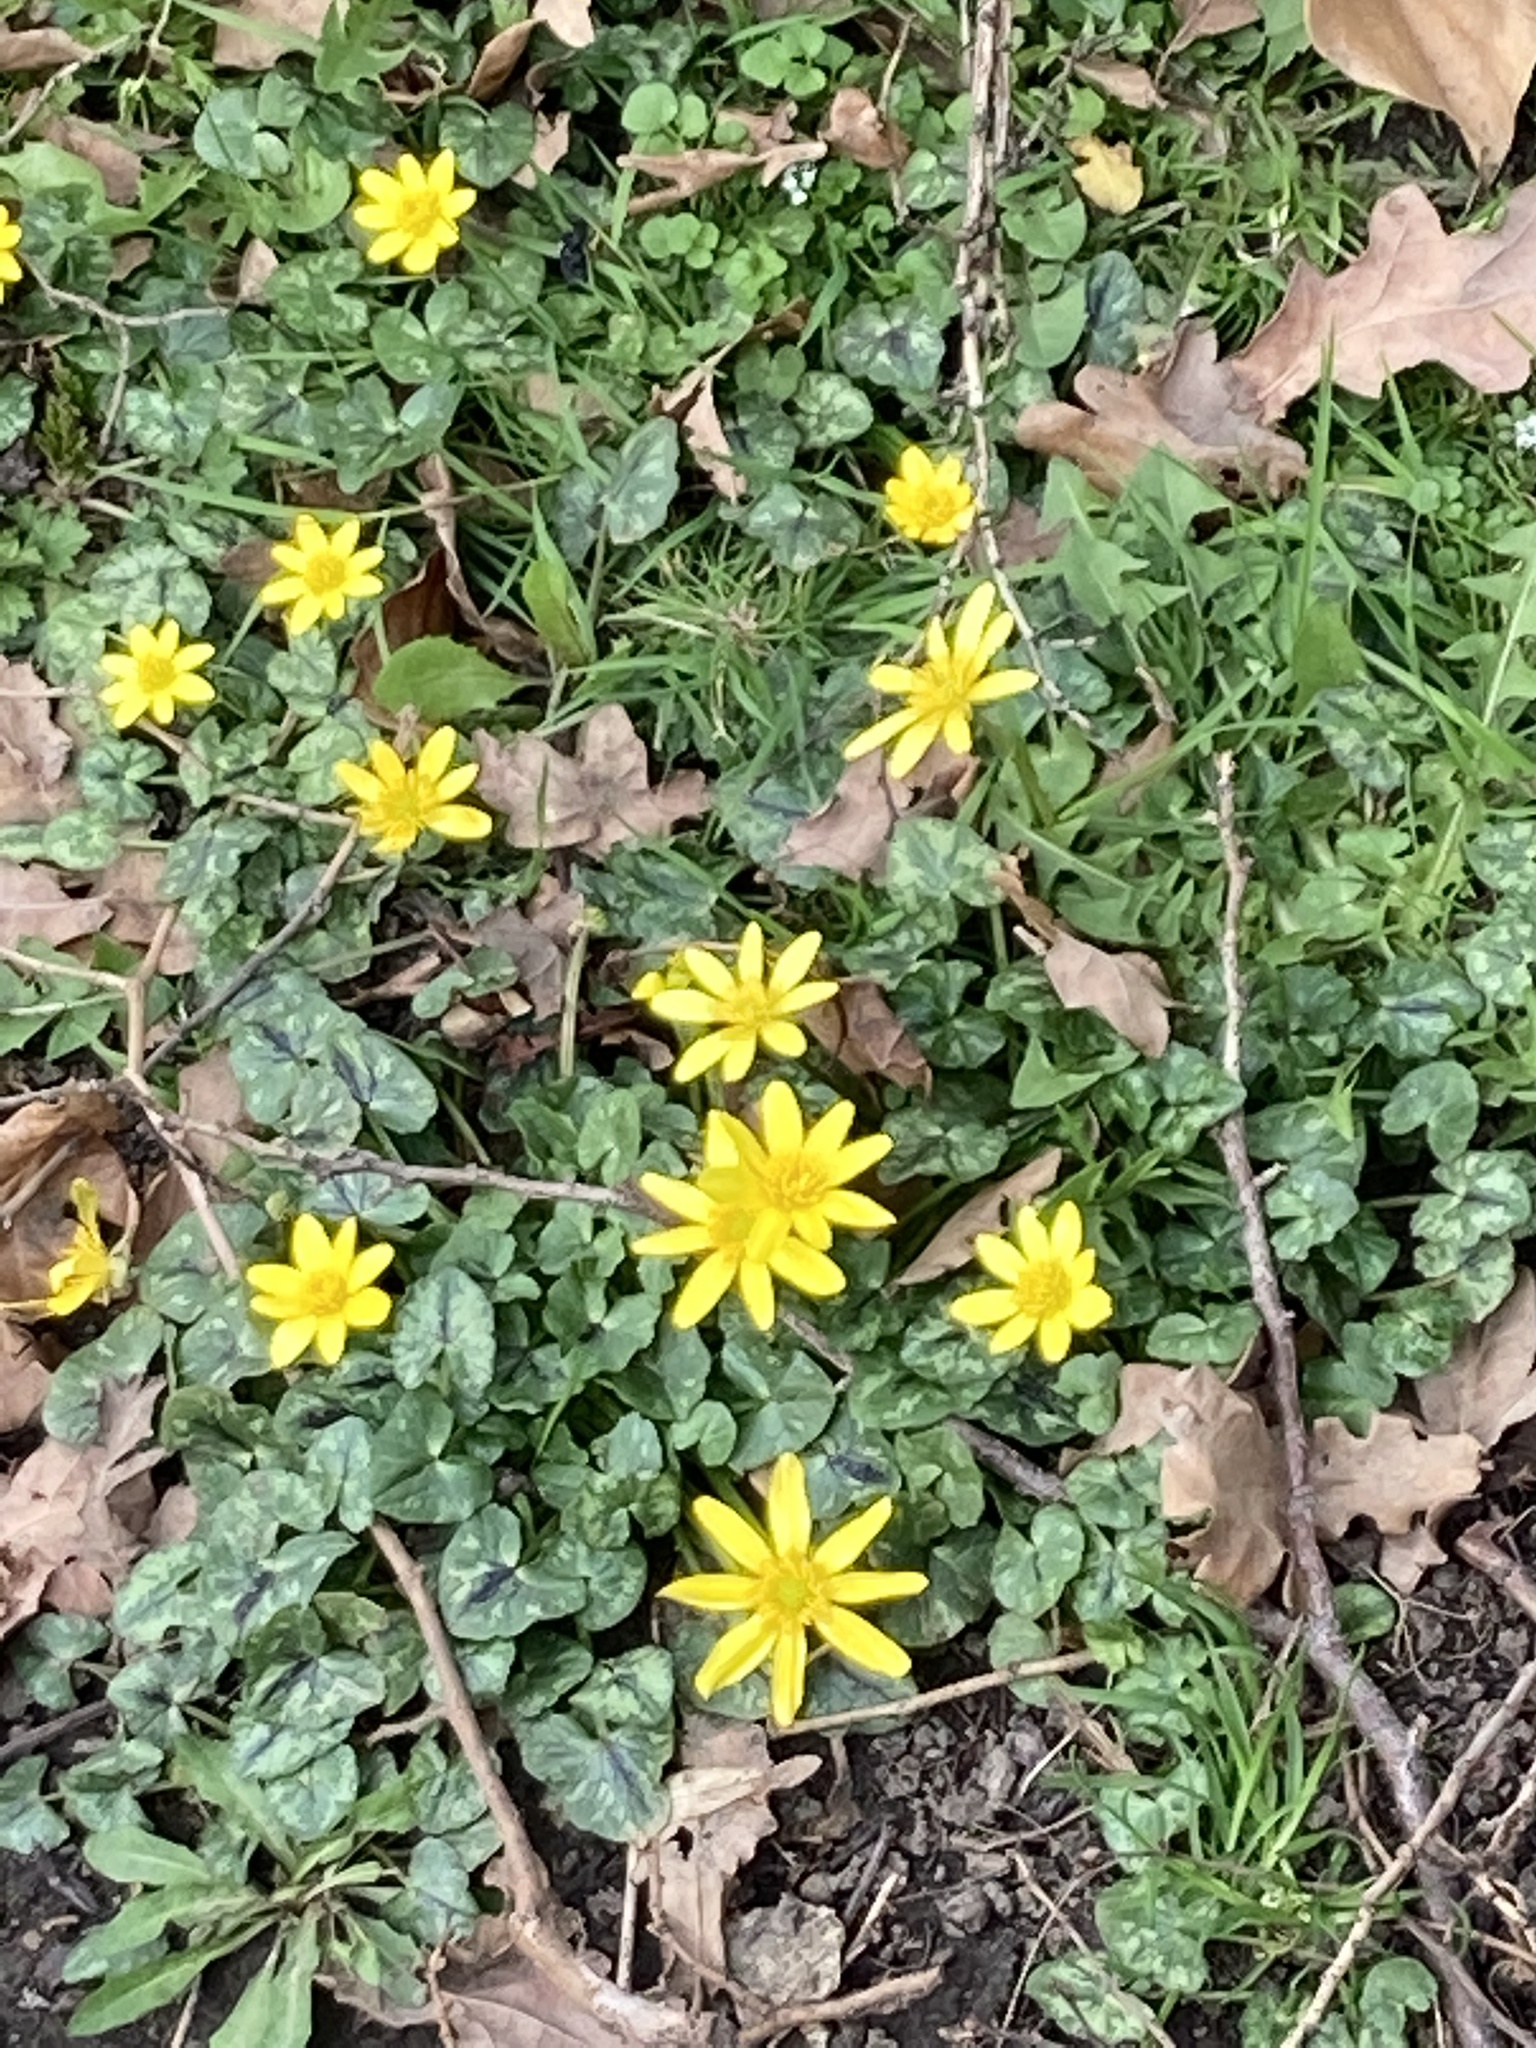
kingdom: Plantae
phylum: Tracheophyta
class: Magnoliopsida
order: Ranunculales
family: Ranunculaceae
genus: Ficaria
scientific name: Ficaria verna
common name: Lesser celandine
